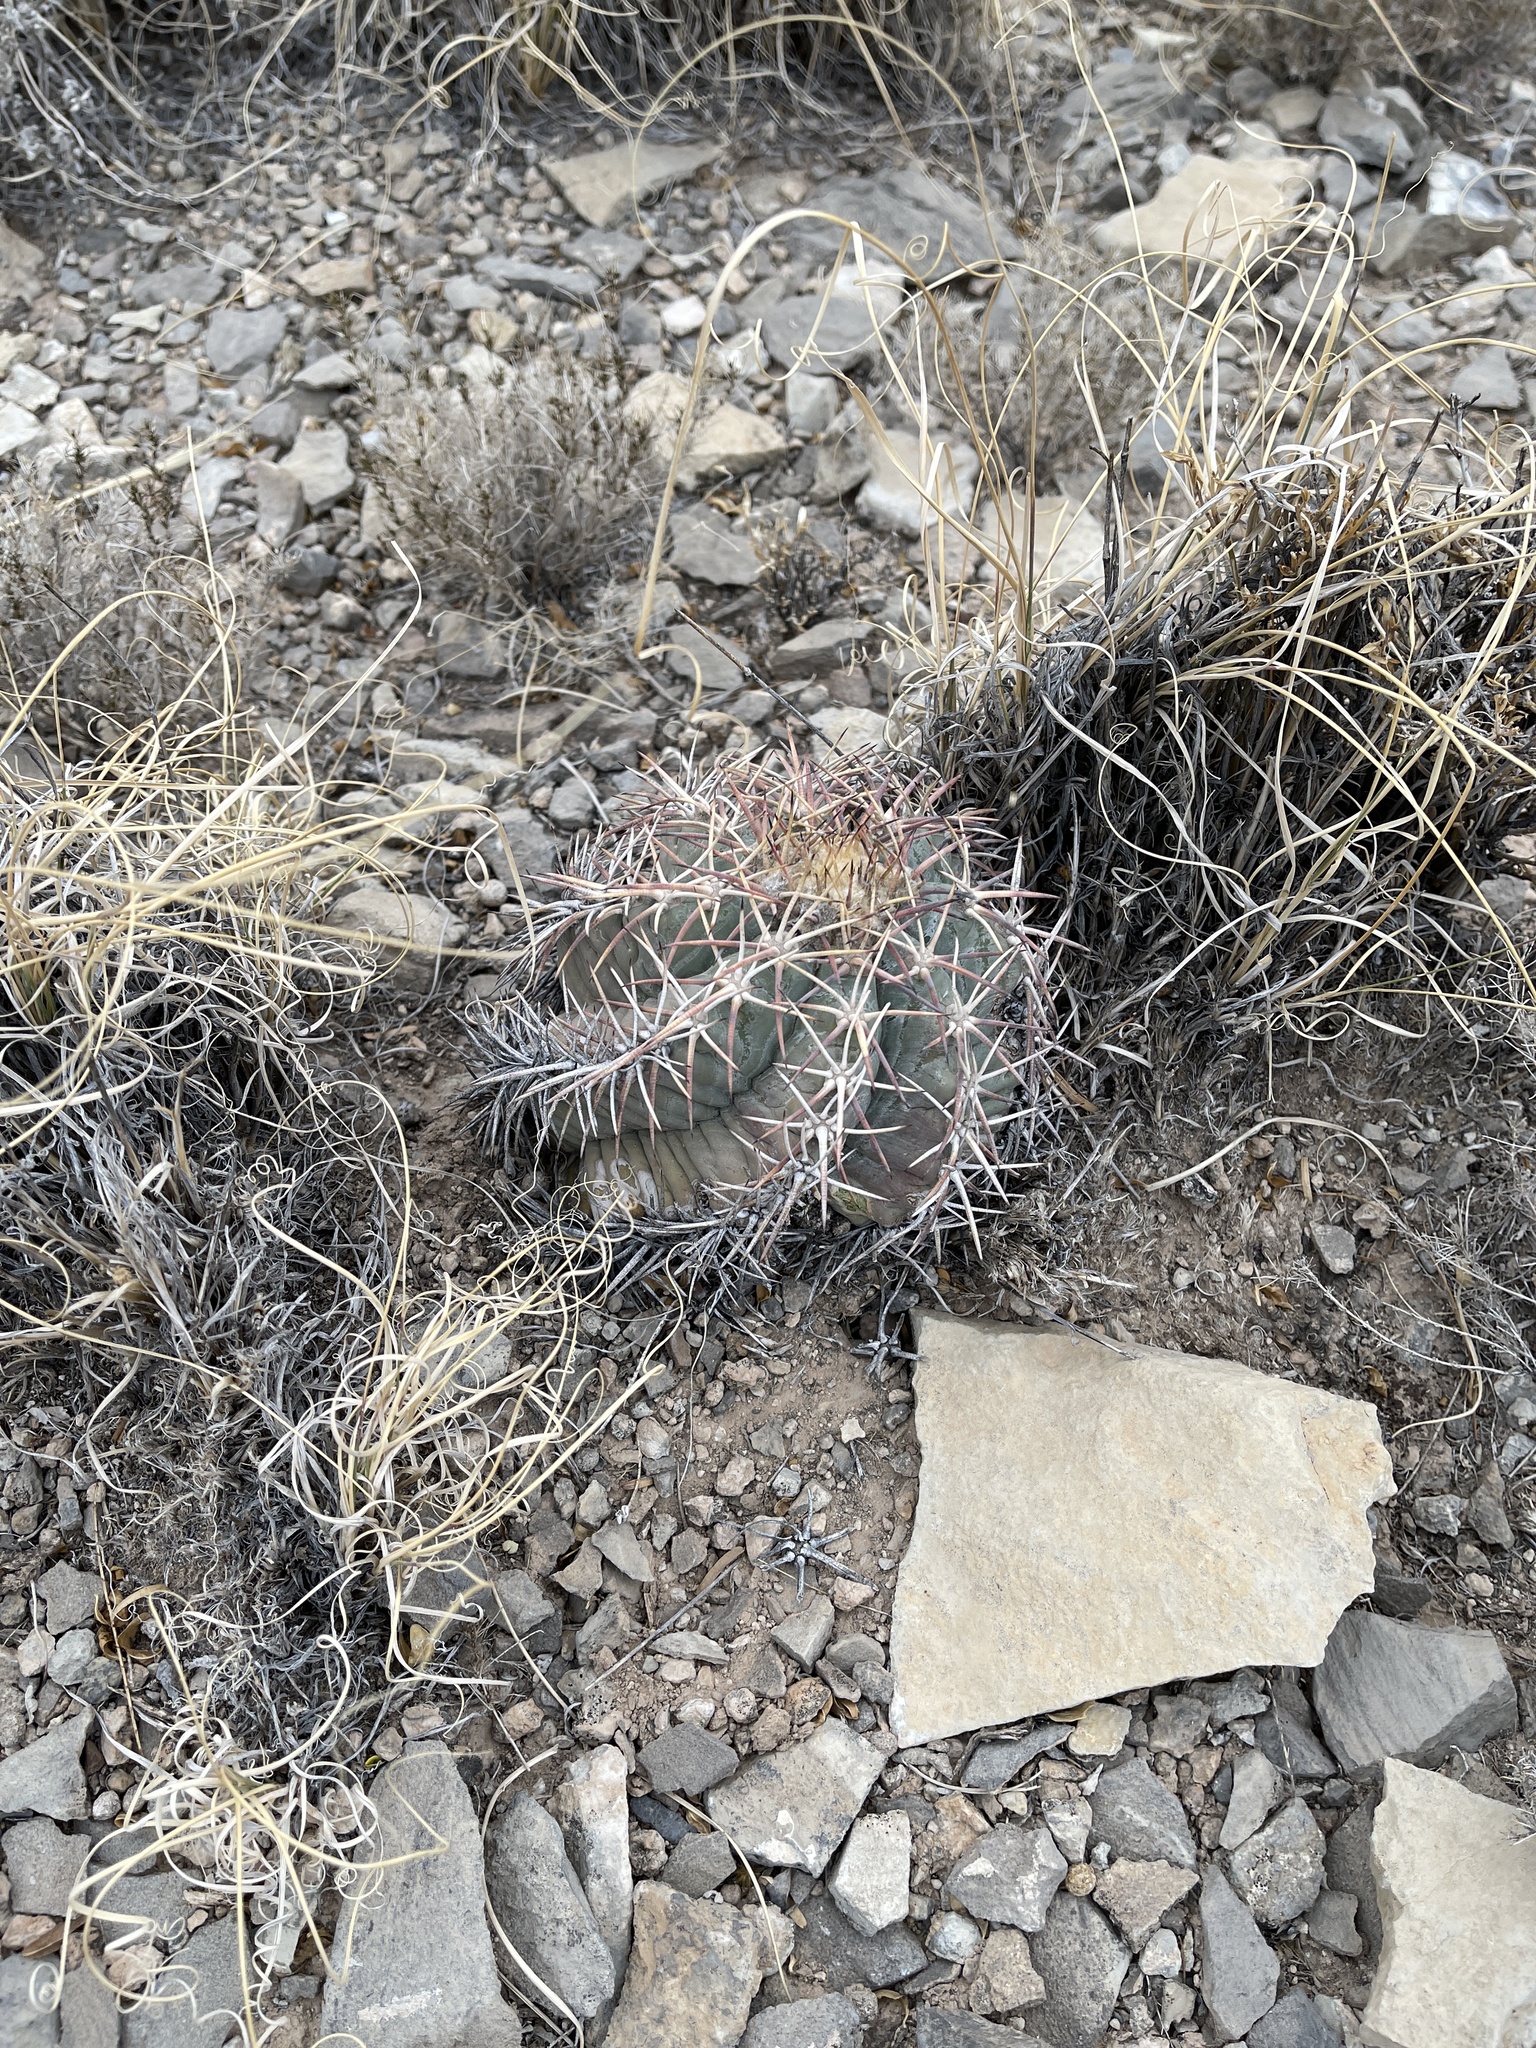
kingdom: Plantae
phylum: Tracheophyta
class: Magnoliopsida
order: Caryophyllales
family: Cactaceae
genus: Echinocactus
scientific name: Echinocactus horizonthalonius
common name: Devilshead
